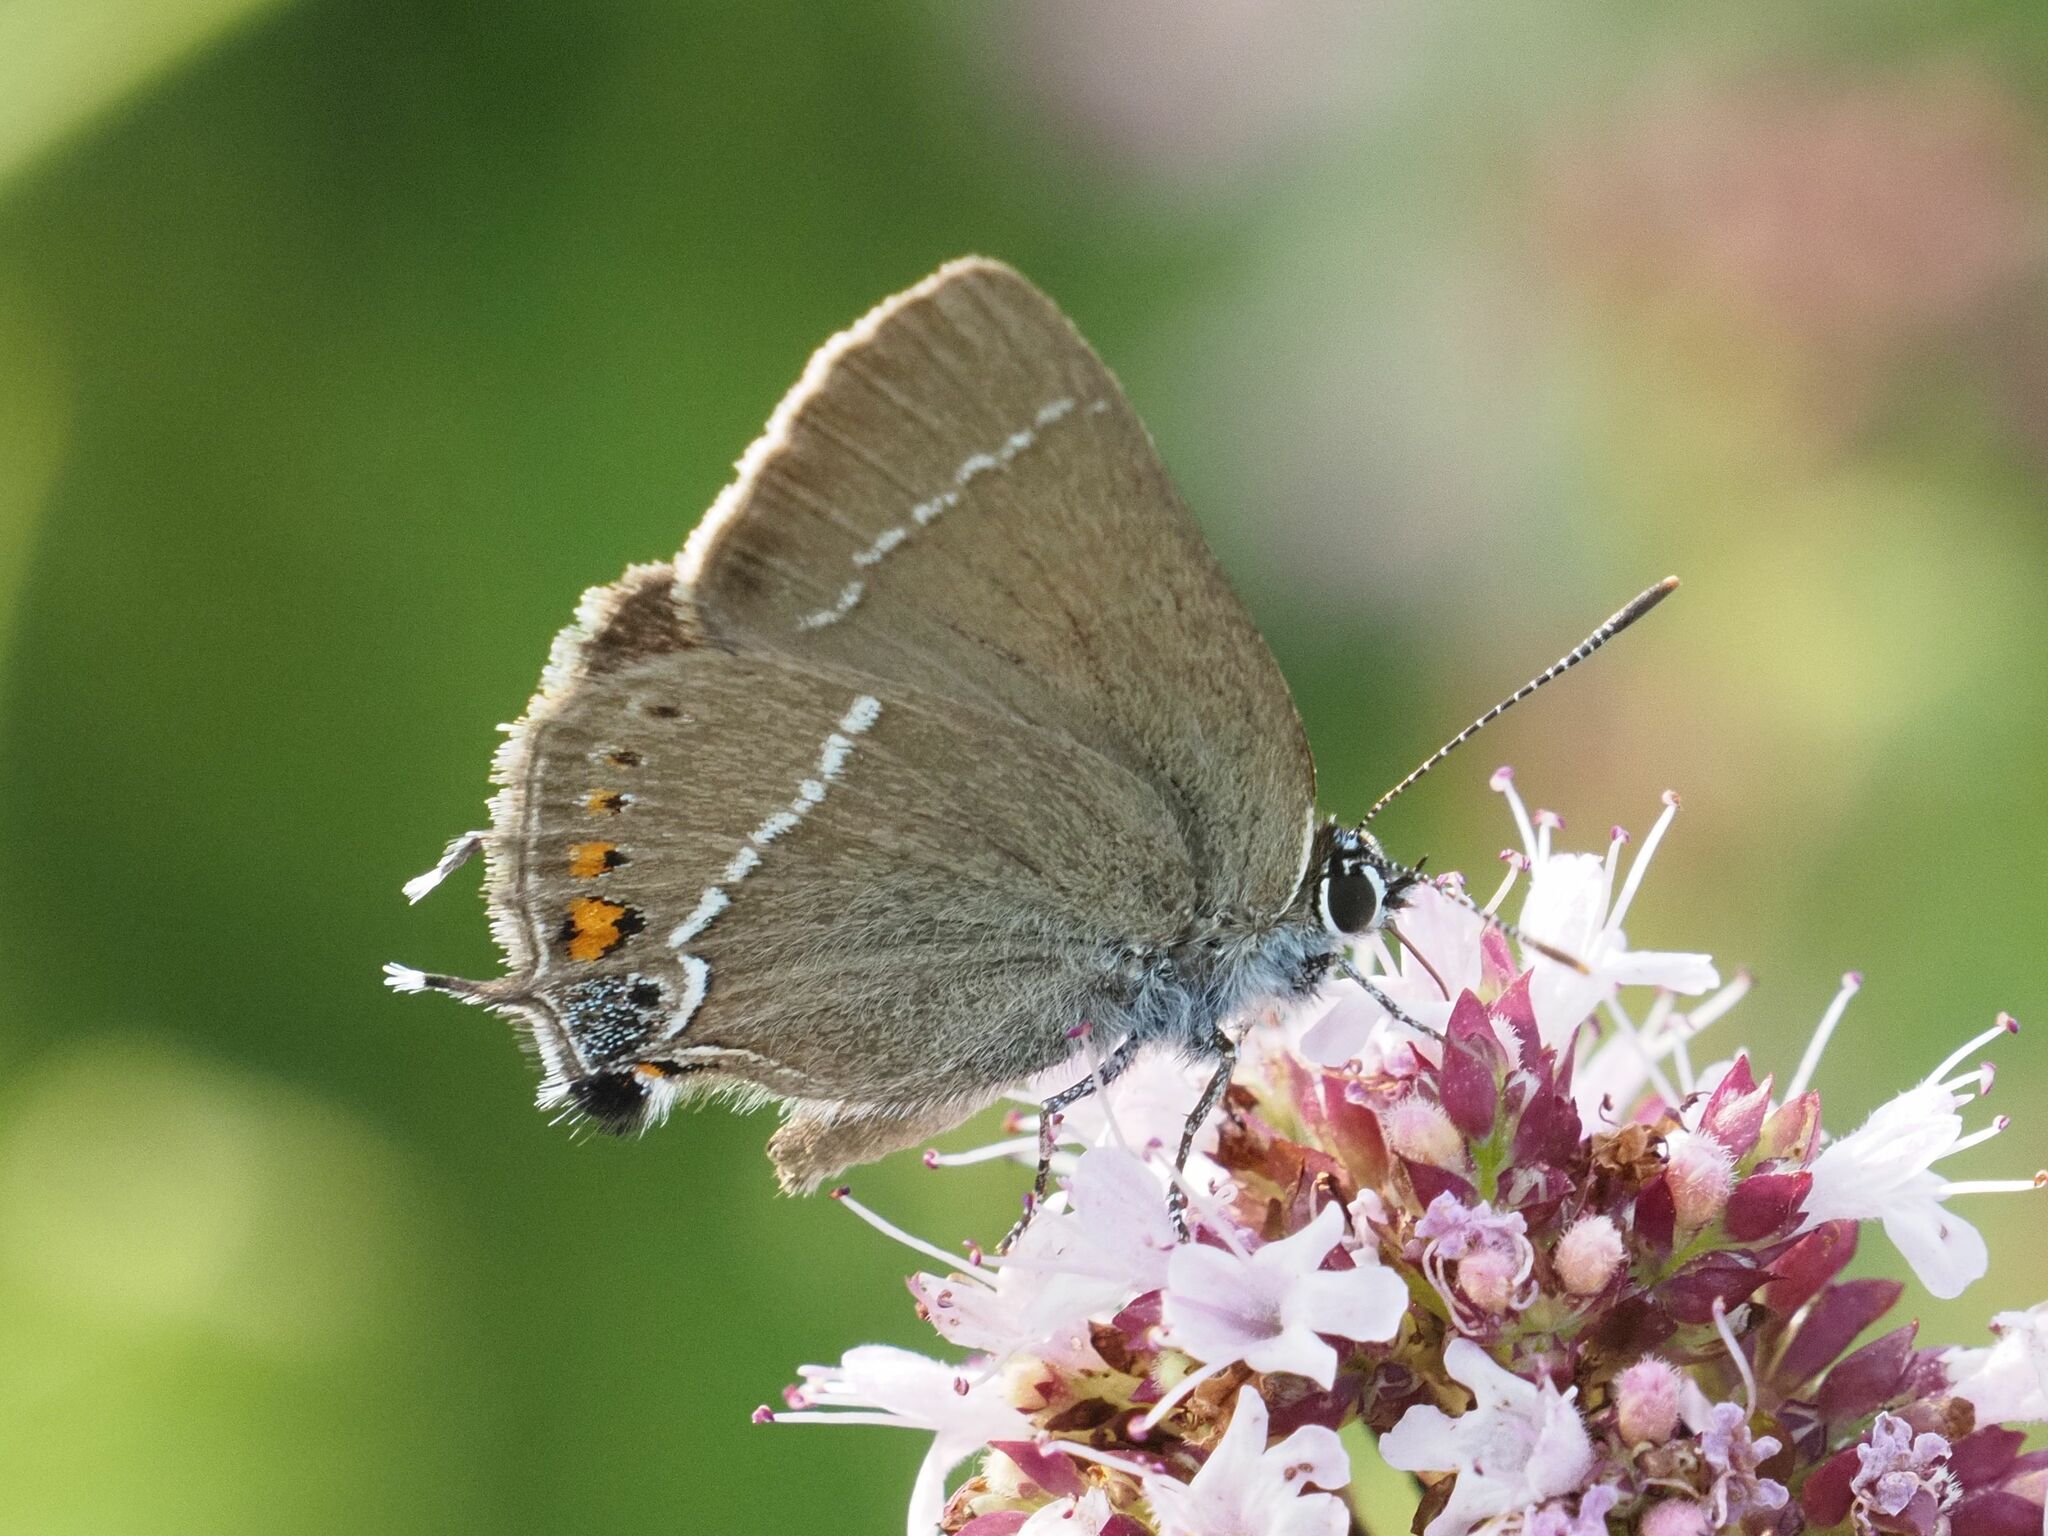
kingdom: Animalia
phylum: Arthropoda
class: Insecta
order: Lepidoptera
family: Lycaenidae
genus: Tuttiola
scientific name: Tuttiola spini
